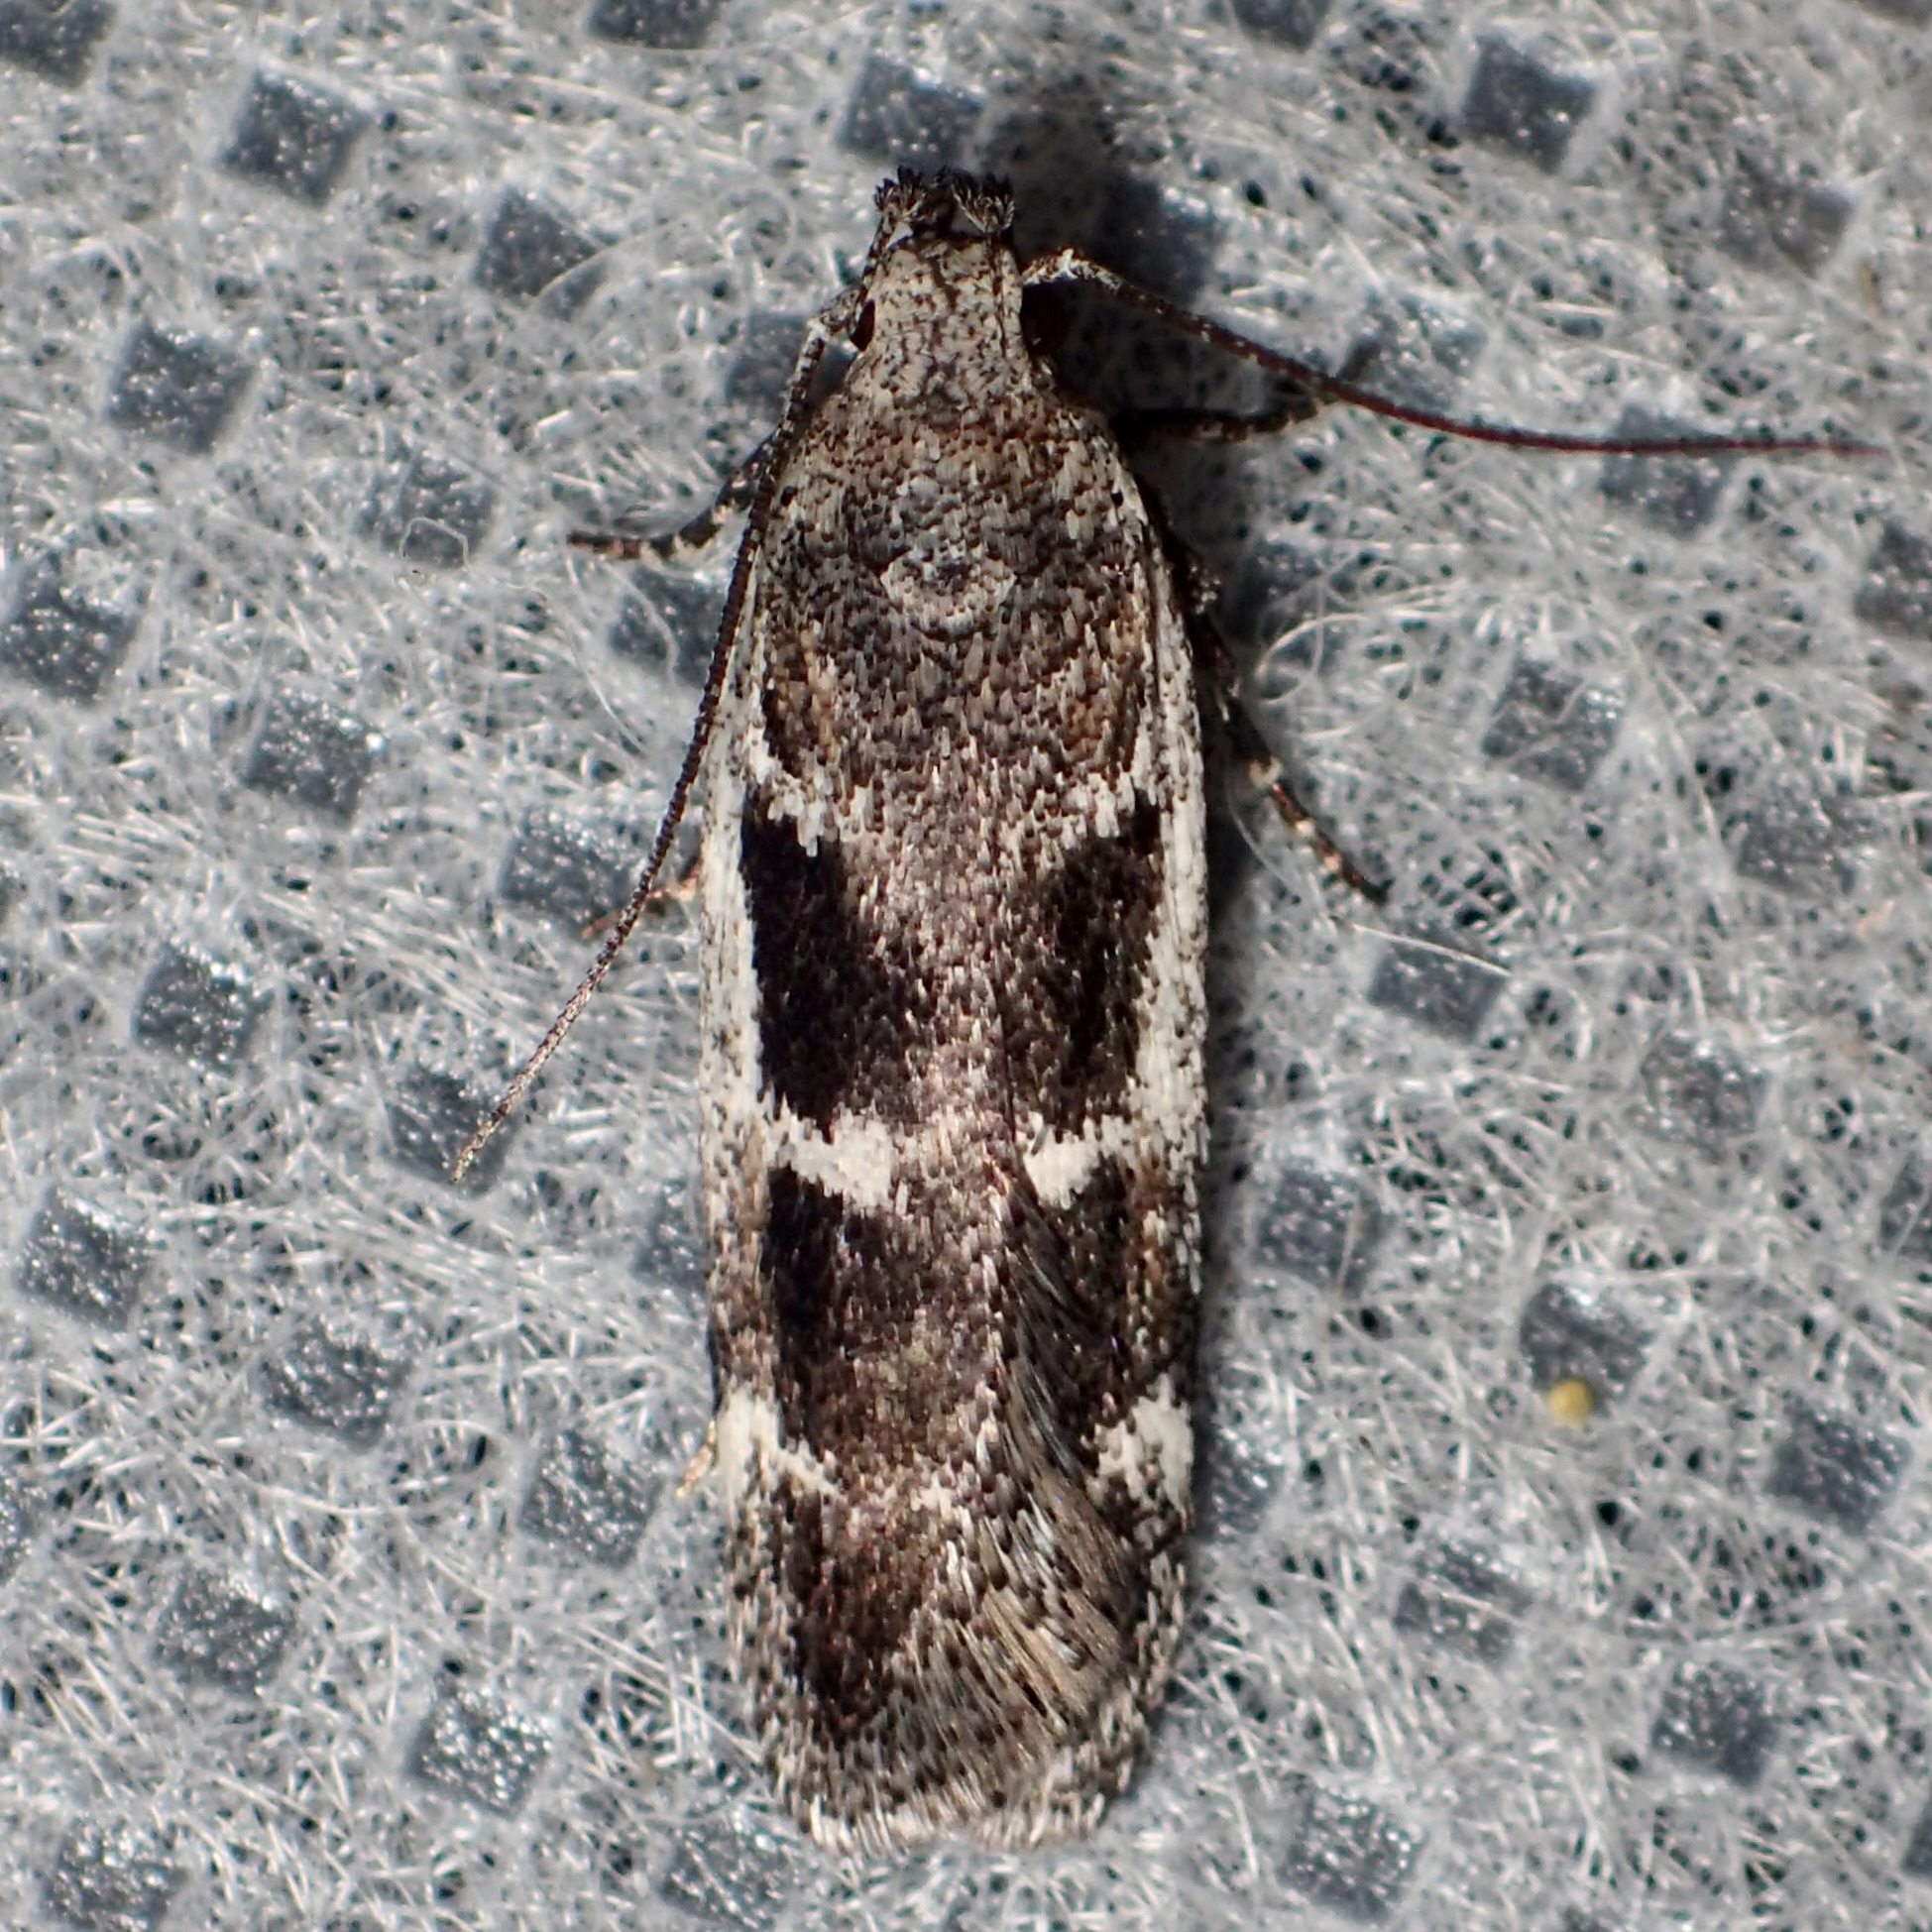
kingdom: Animalia
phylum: Arthropoda
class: Insecta
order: Lepidoptera
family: Gelechiidae
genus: Filatima
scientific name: Filatima obidenna
